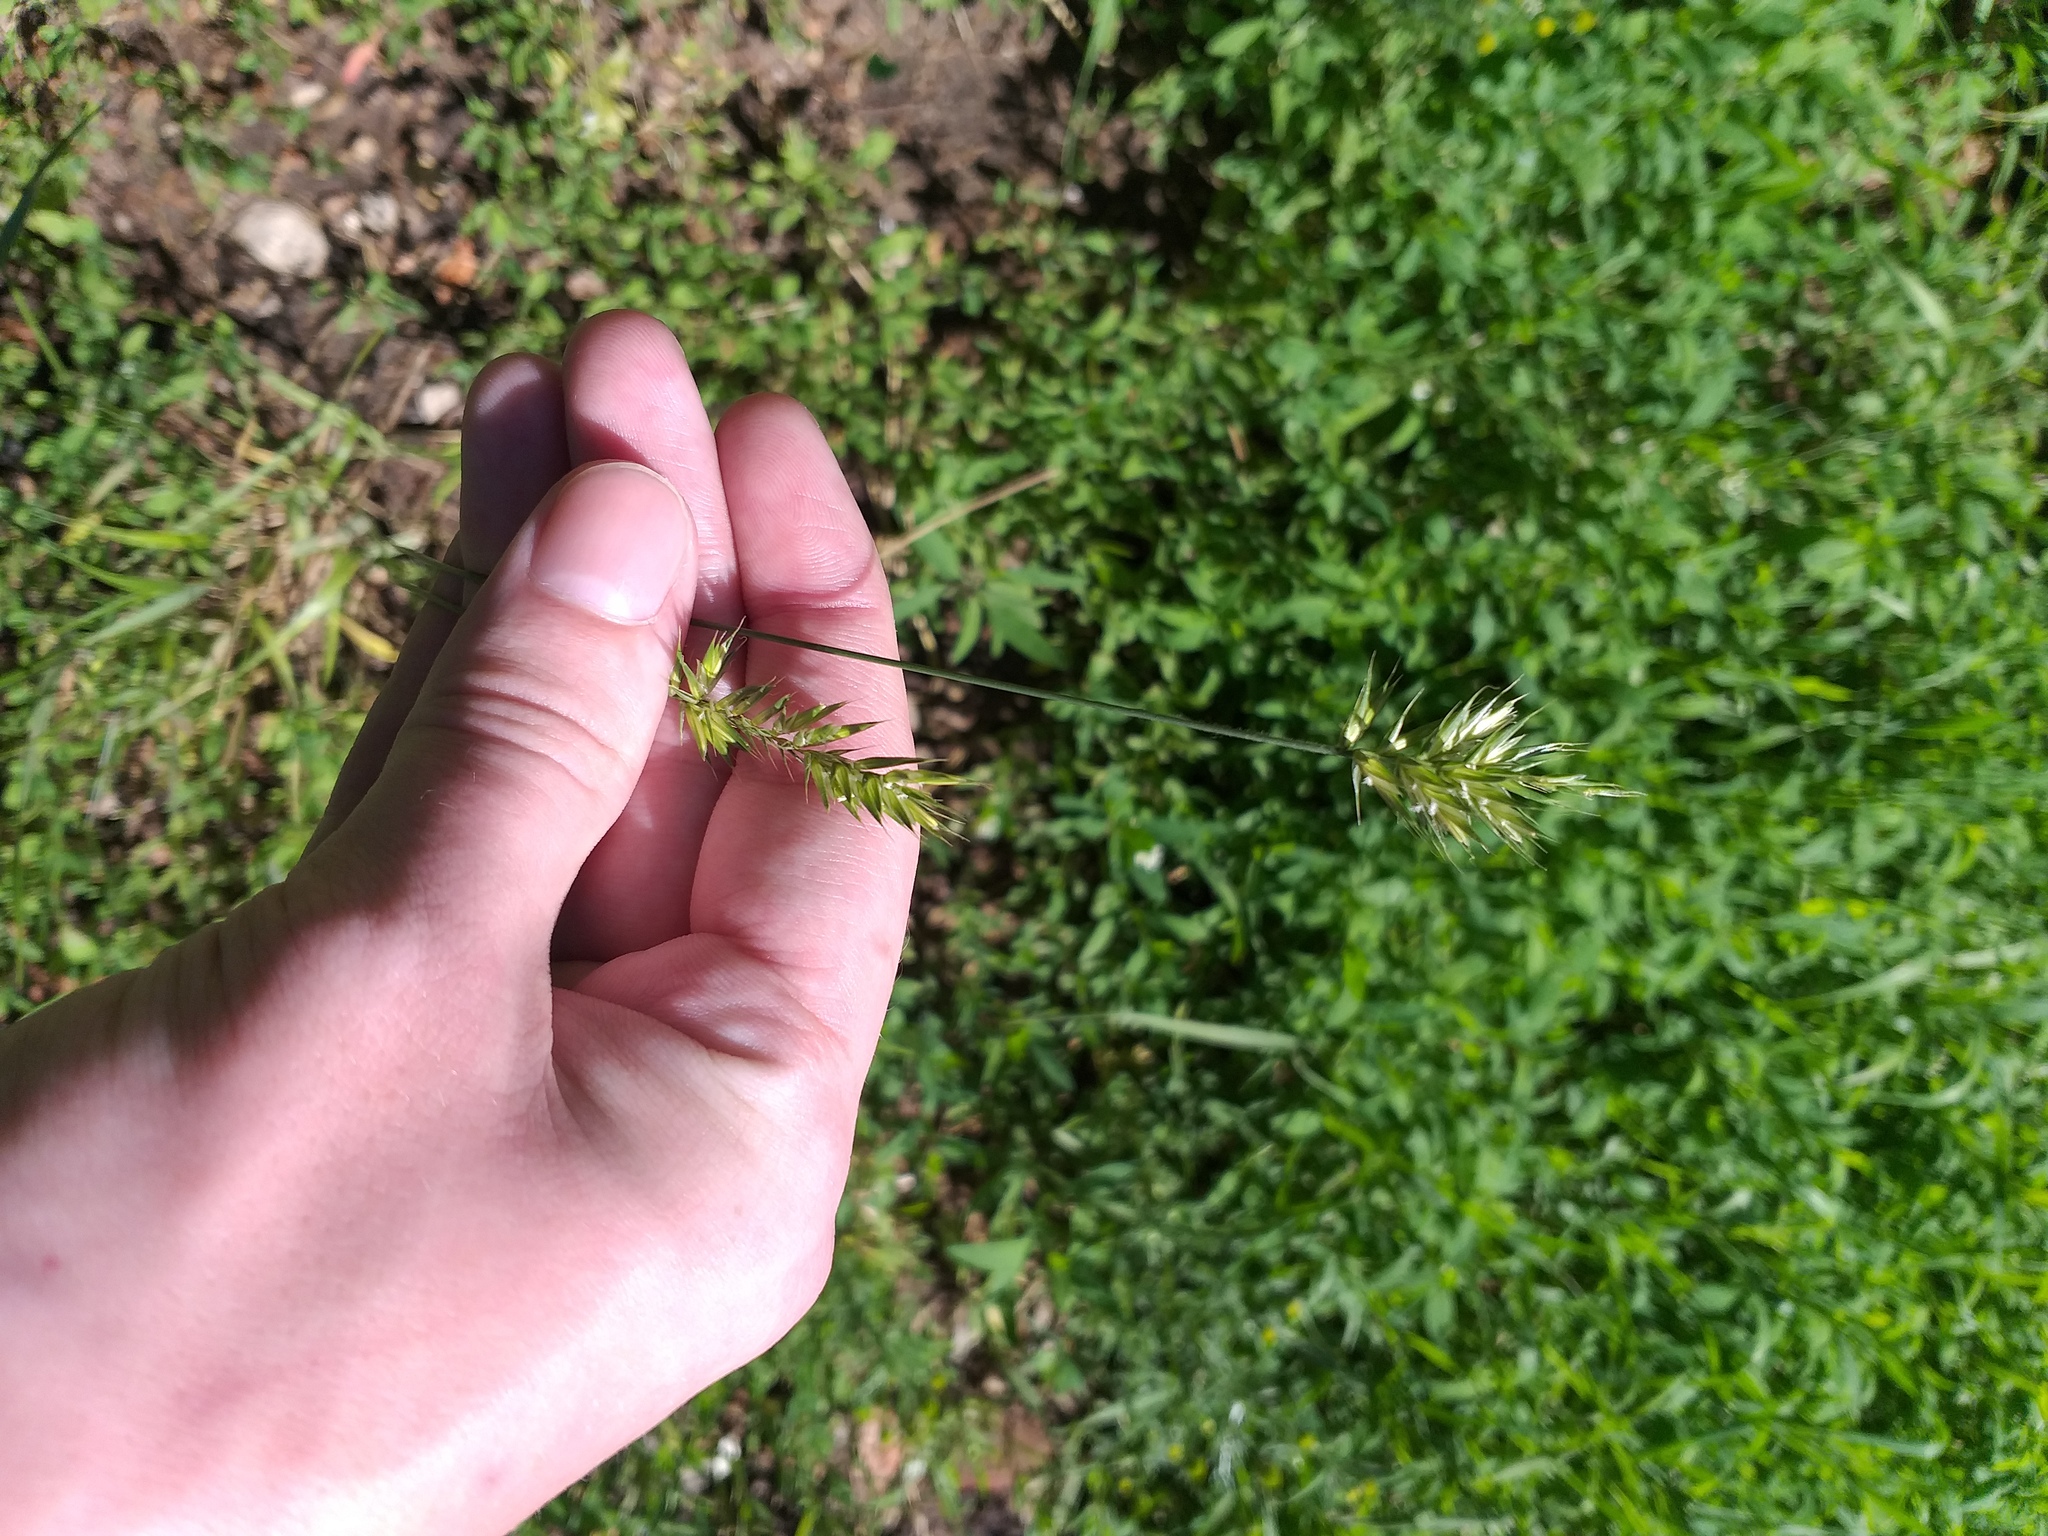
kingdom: Plantae
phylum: Tracheophyta
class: Liliopsida
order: Poales
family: Poaceae
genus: Agropyron
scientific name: Agropyron cristatum
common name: Crested wheatgrass
